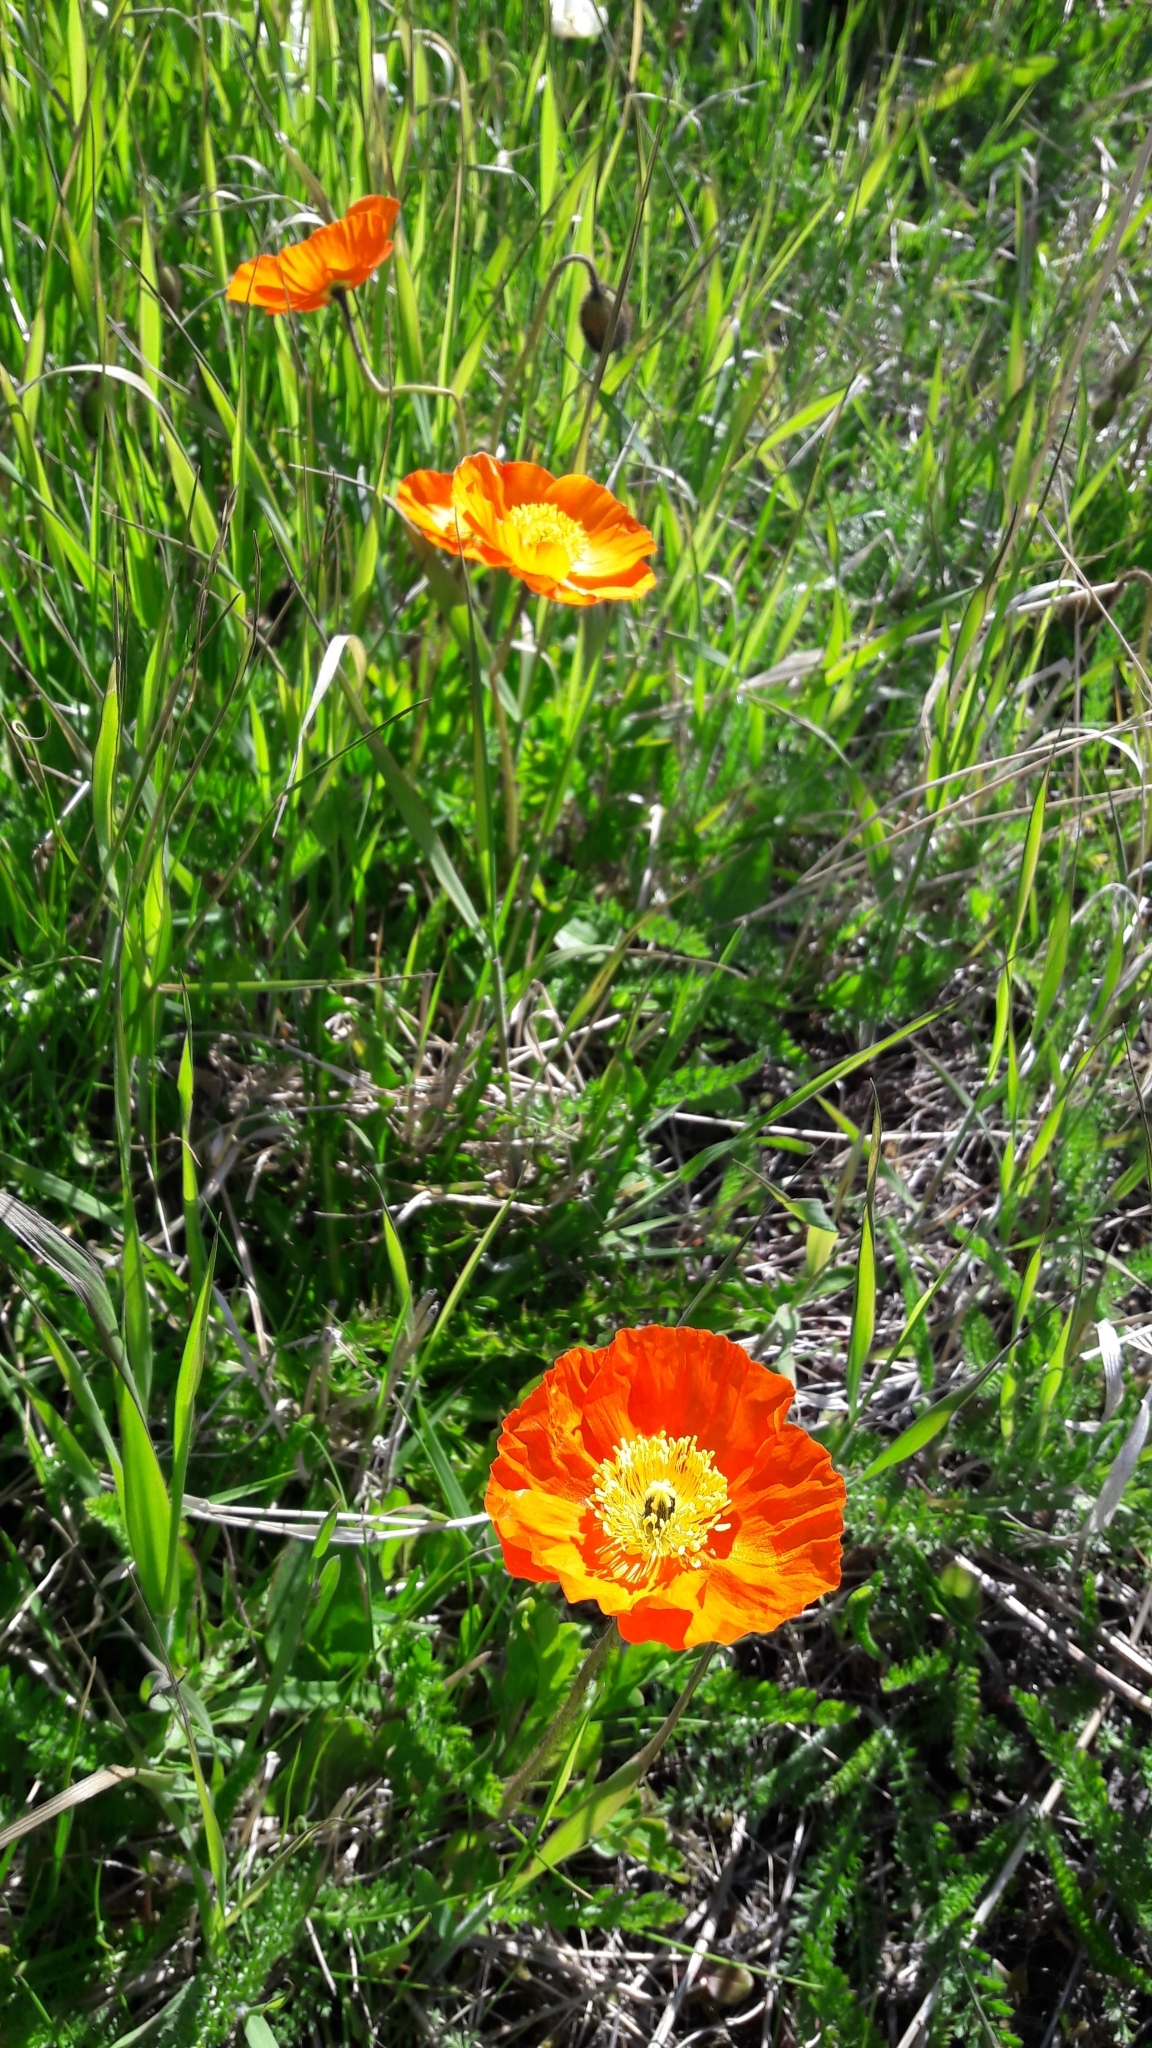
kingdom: Plantae
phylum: Tracheophyta
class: Magnoliopsida
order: Ranunculales
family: Papaveraceae
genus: Papaver
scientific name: Papaver nudicaule
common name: Arctic poppy
